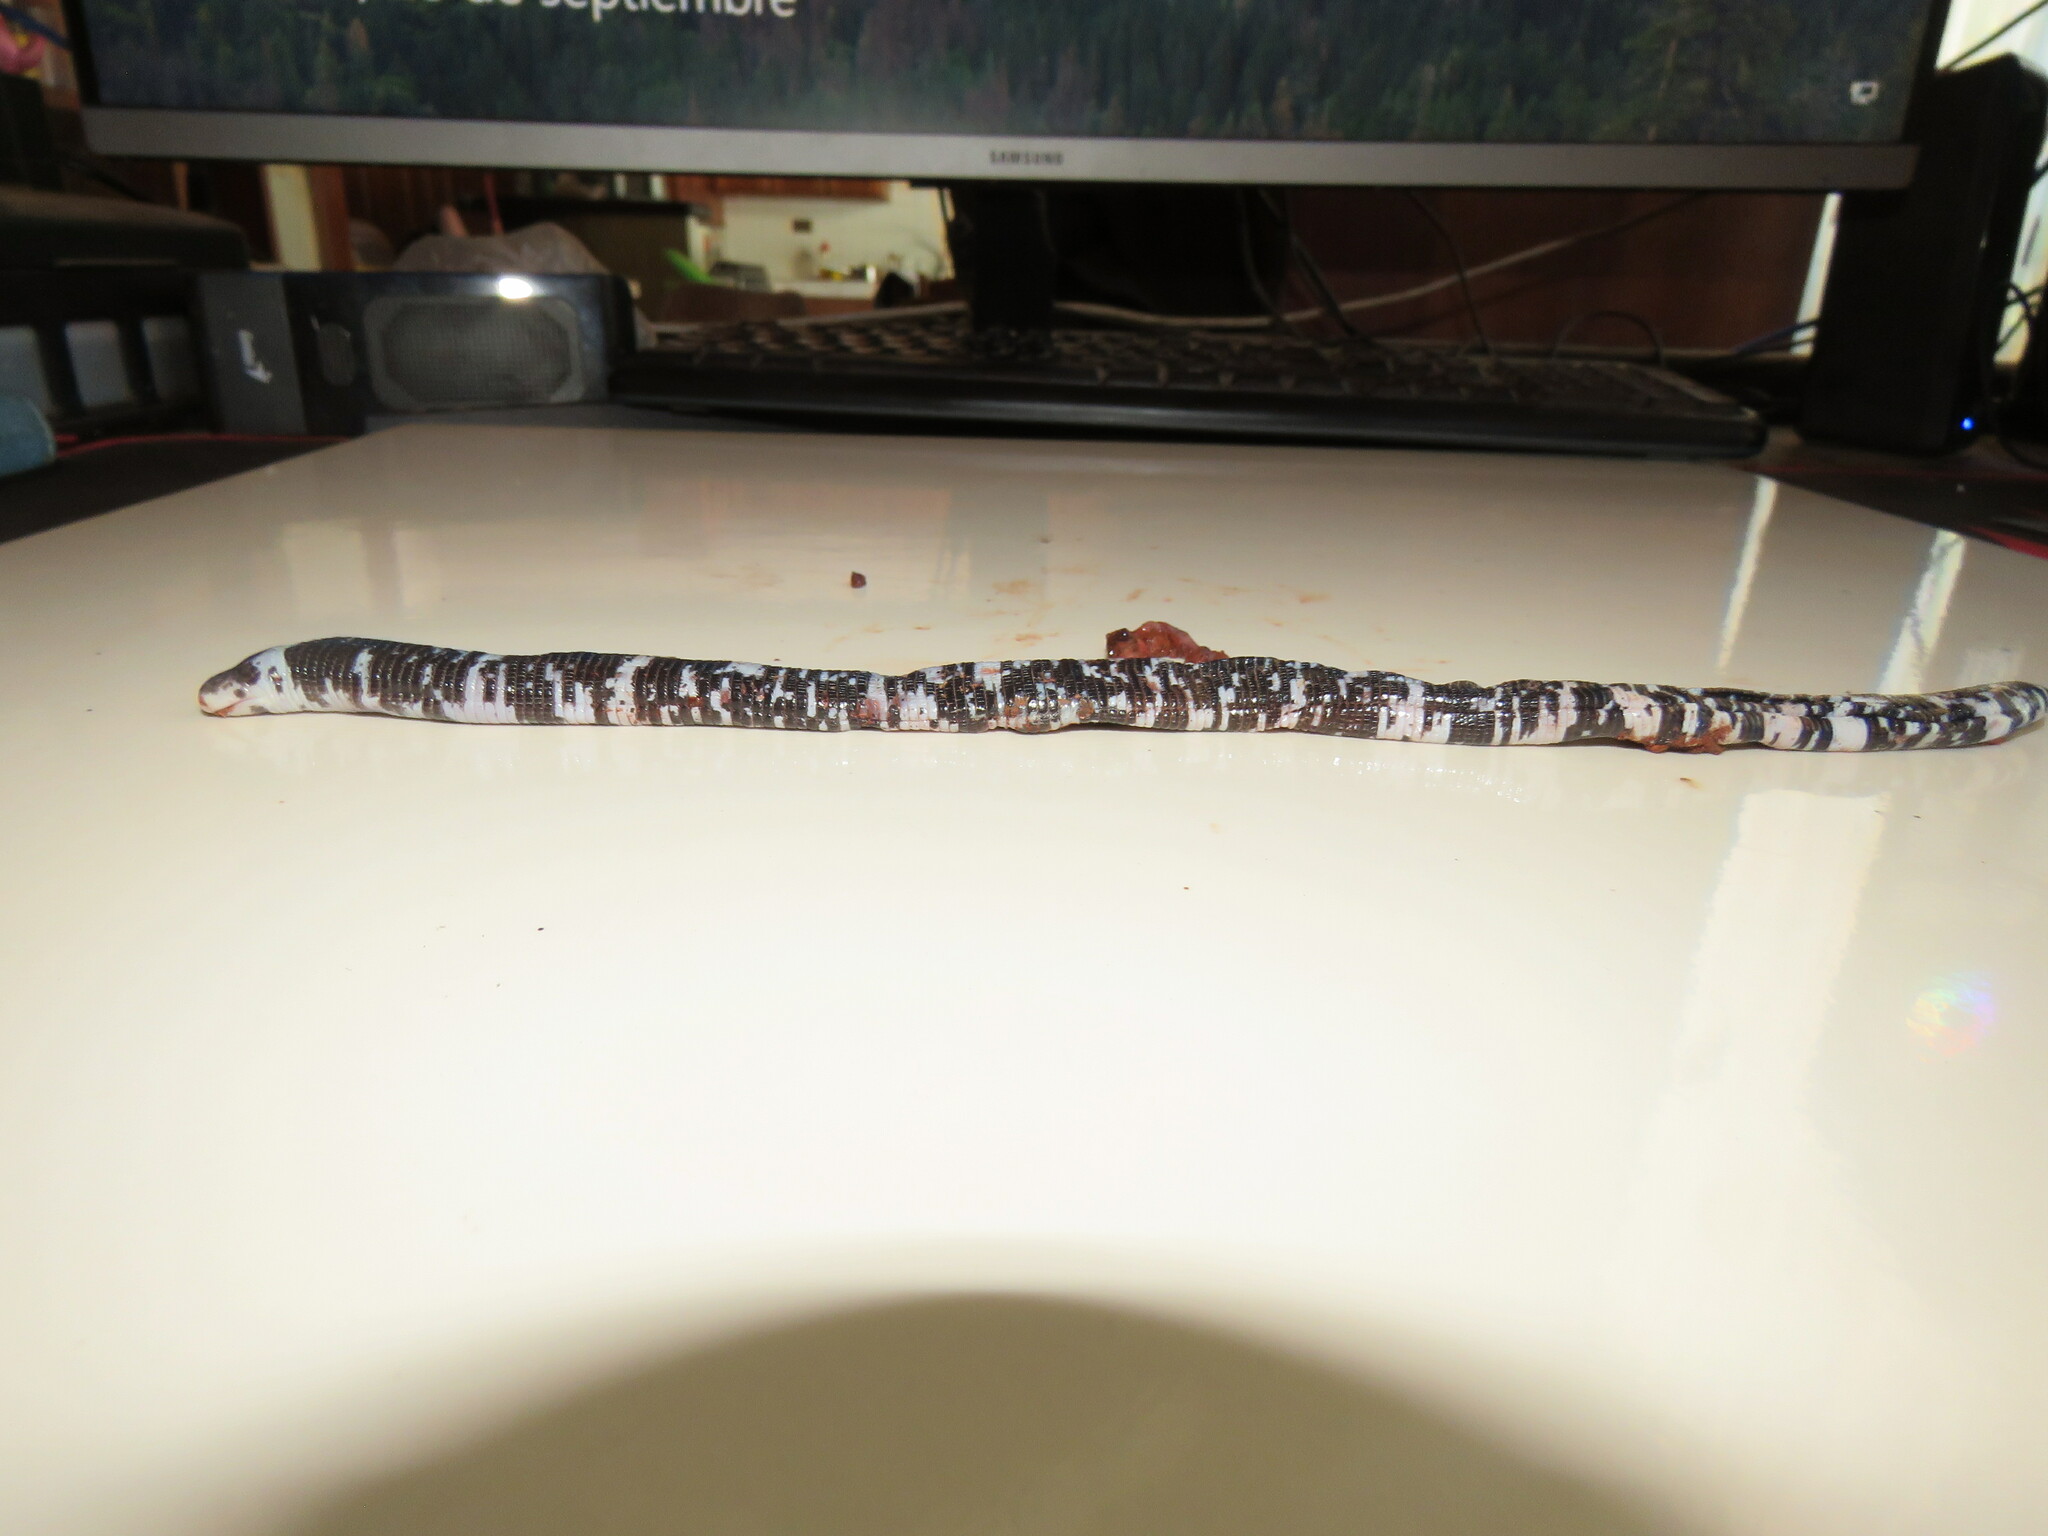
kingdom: Animalia
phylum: Chordata
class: Squamata
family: Amphisbaenidae
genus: Amphisbaena
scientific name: Amphisbaena fuliginosa
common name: Speckled worm lizard
